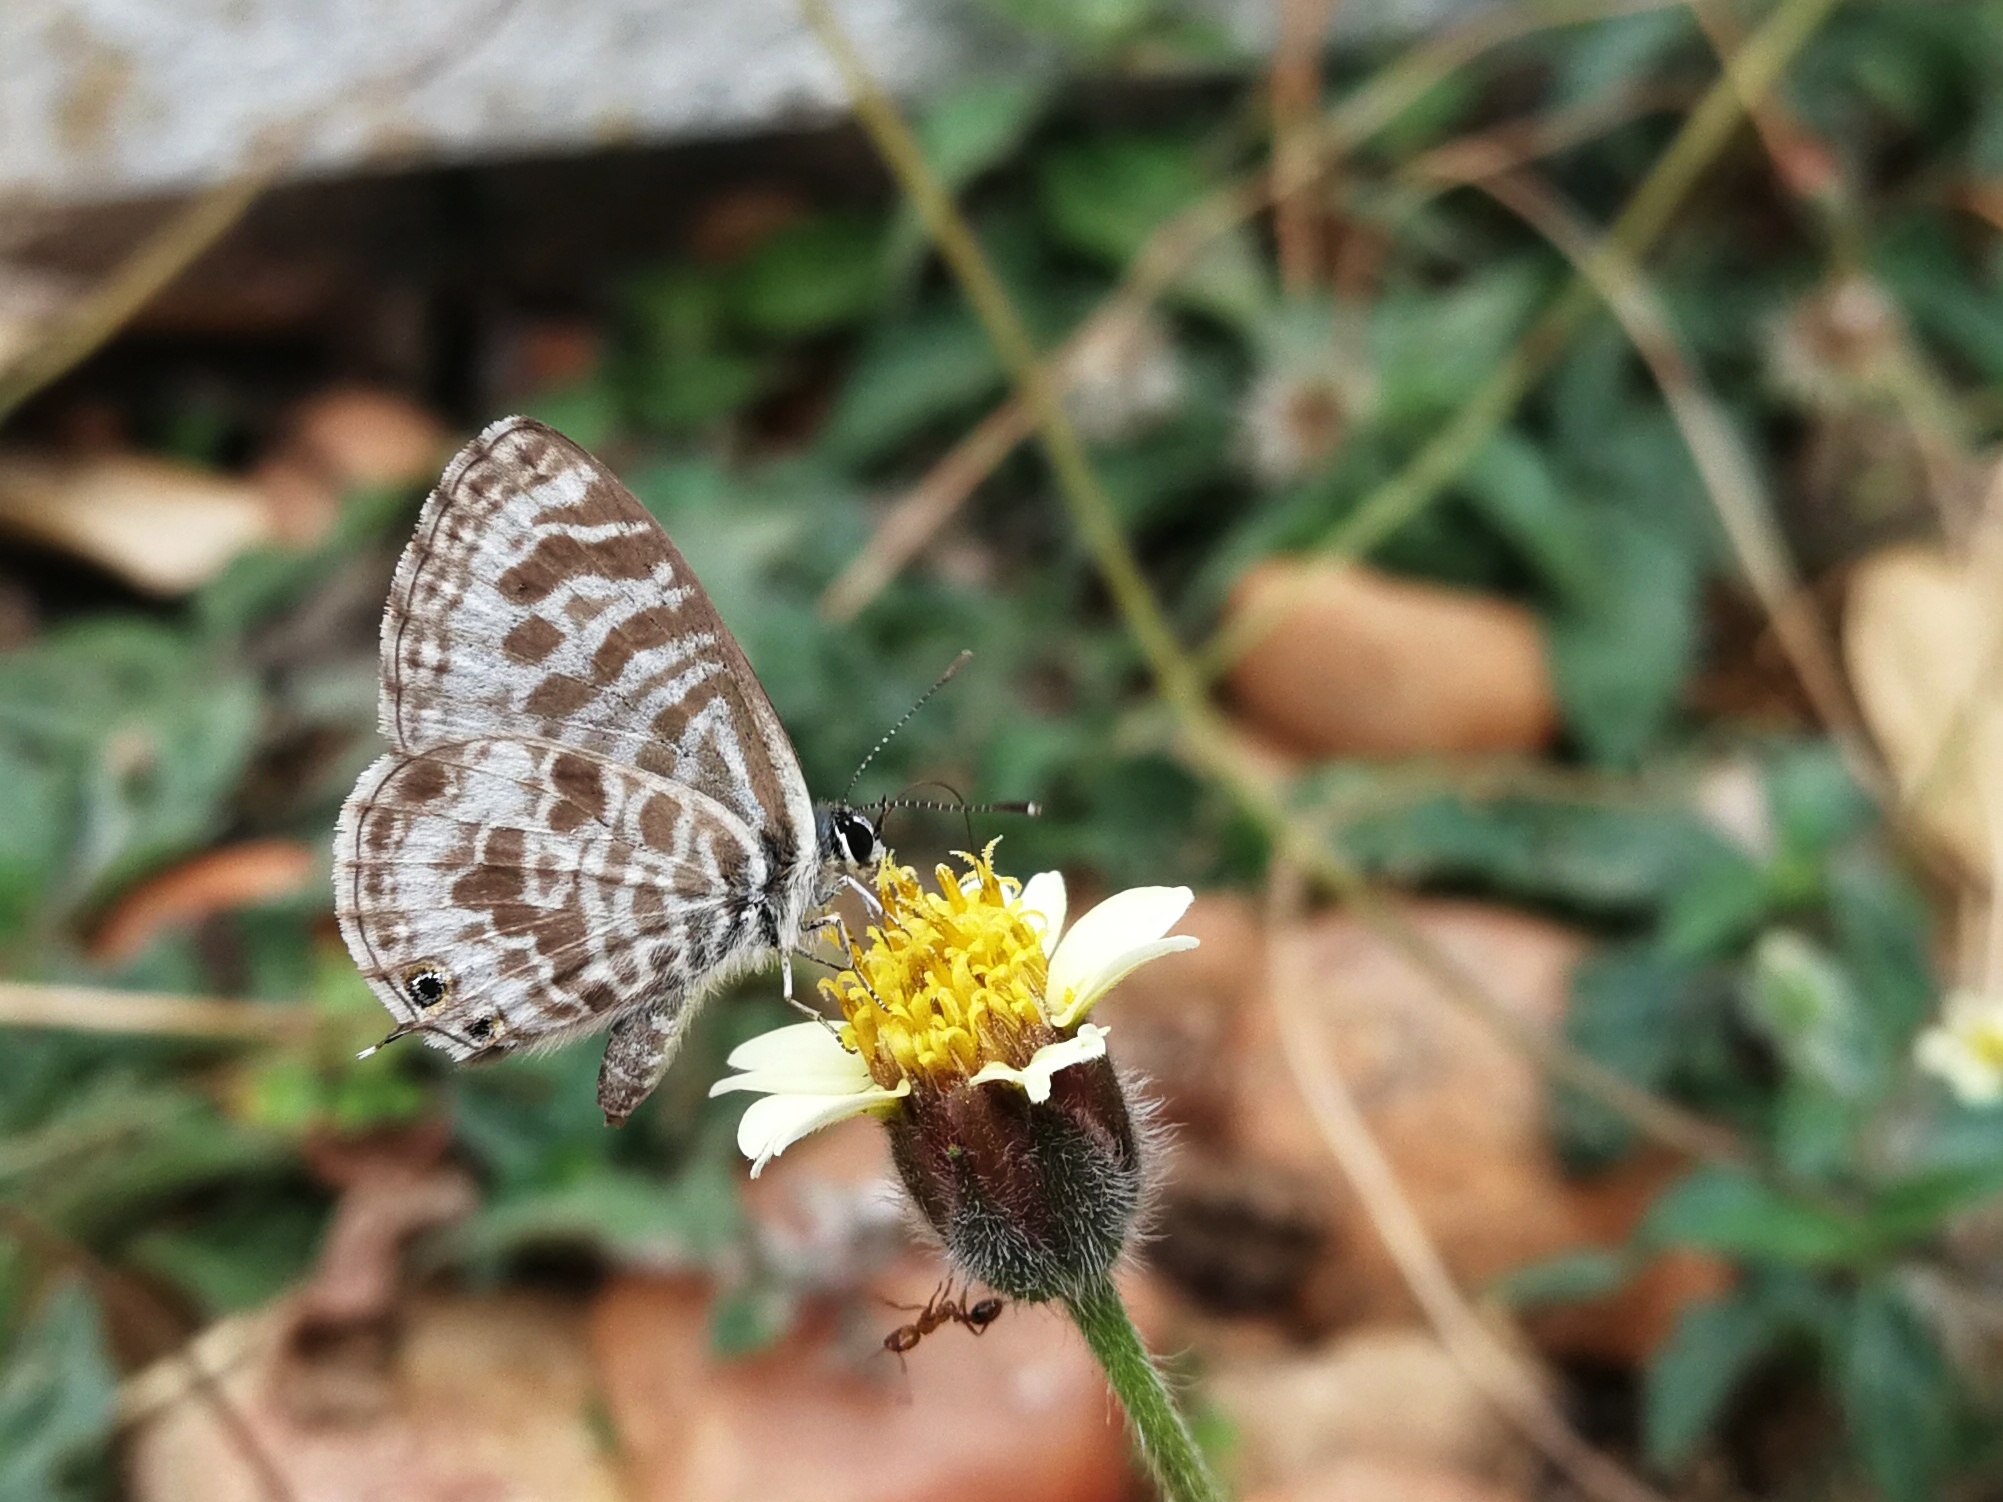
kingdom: Animalia
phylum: Arthropoda
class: Insecta
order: Lepidoptera
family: Lycaenidae
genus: Leptotes
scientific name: Leptotes plinius
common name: Zebra blue
